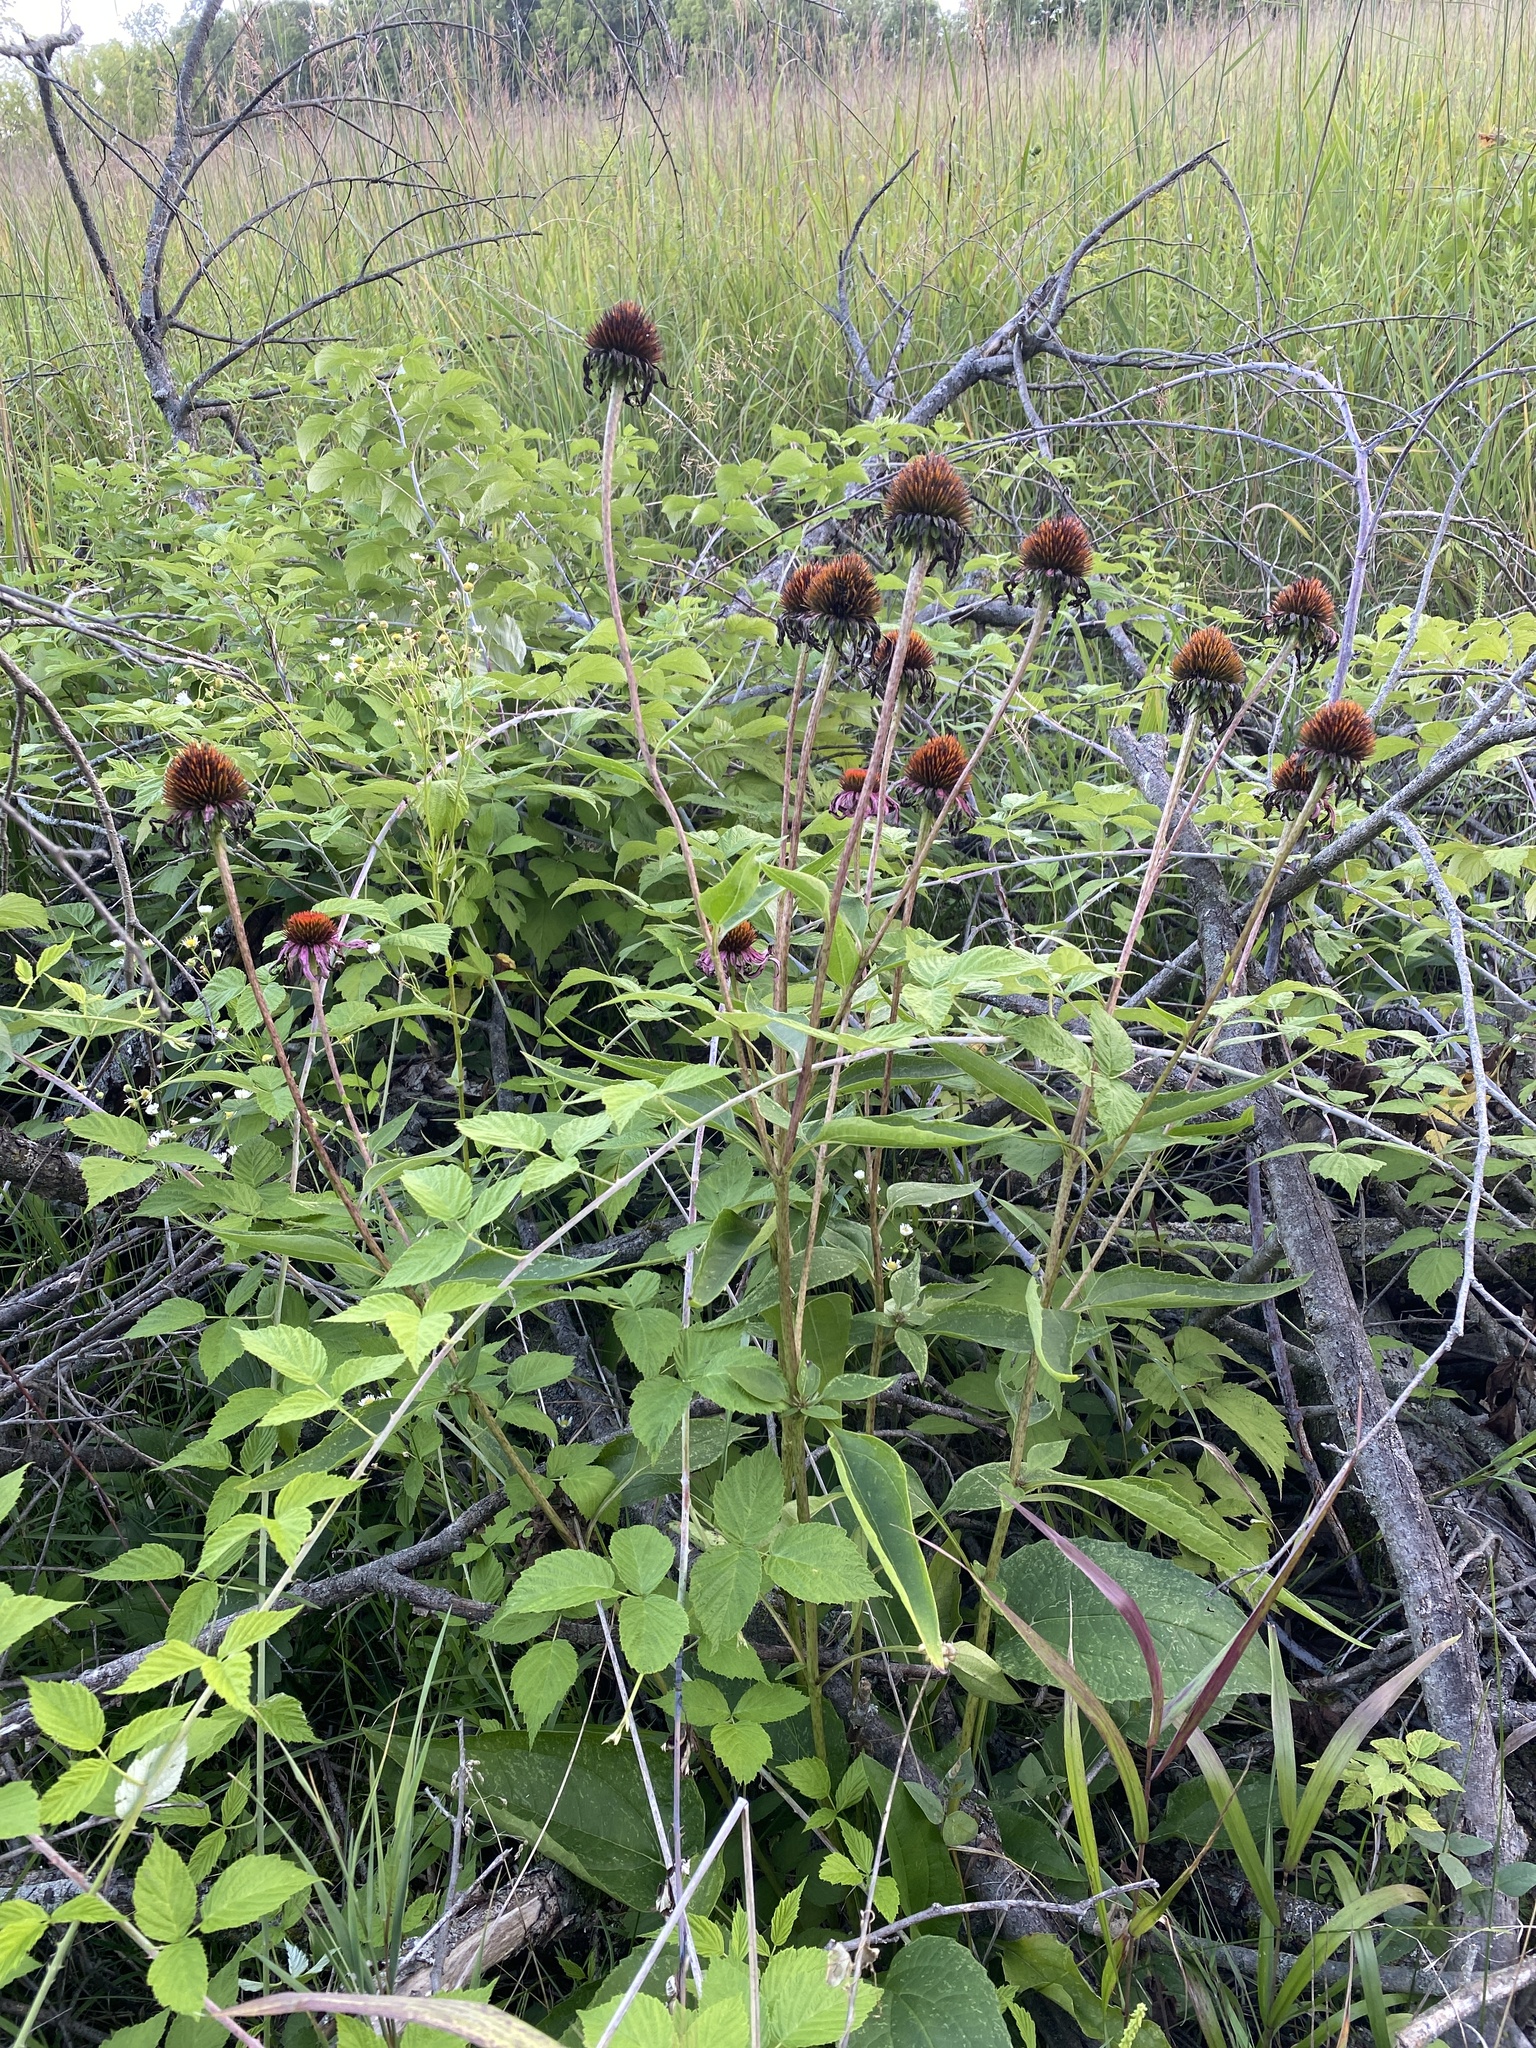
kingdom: Plantae
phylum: Tracheophyta
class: Magnoliopsida
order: Asterales
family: Asteraceae
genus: Echinacea
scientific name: Echinacea purpurea
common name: Broad-leaved purple coneflower
